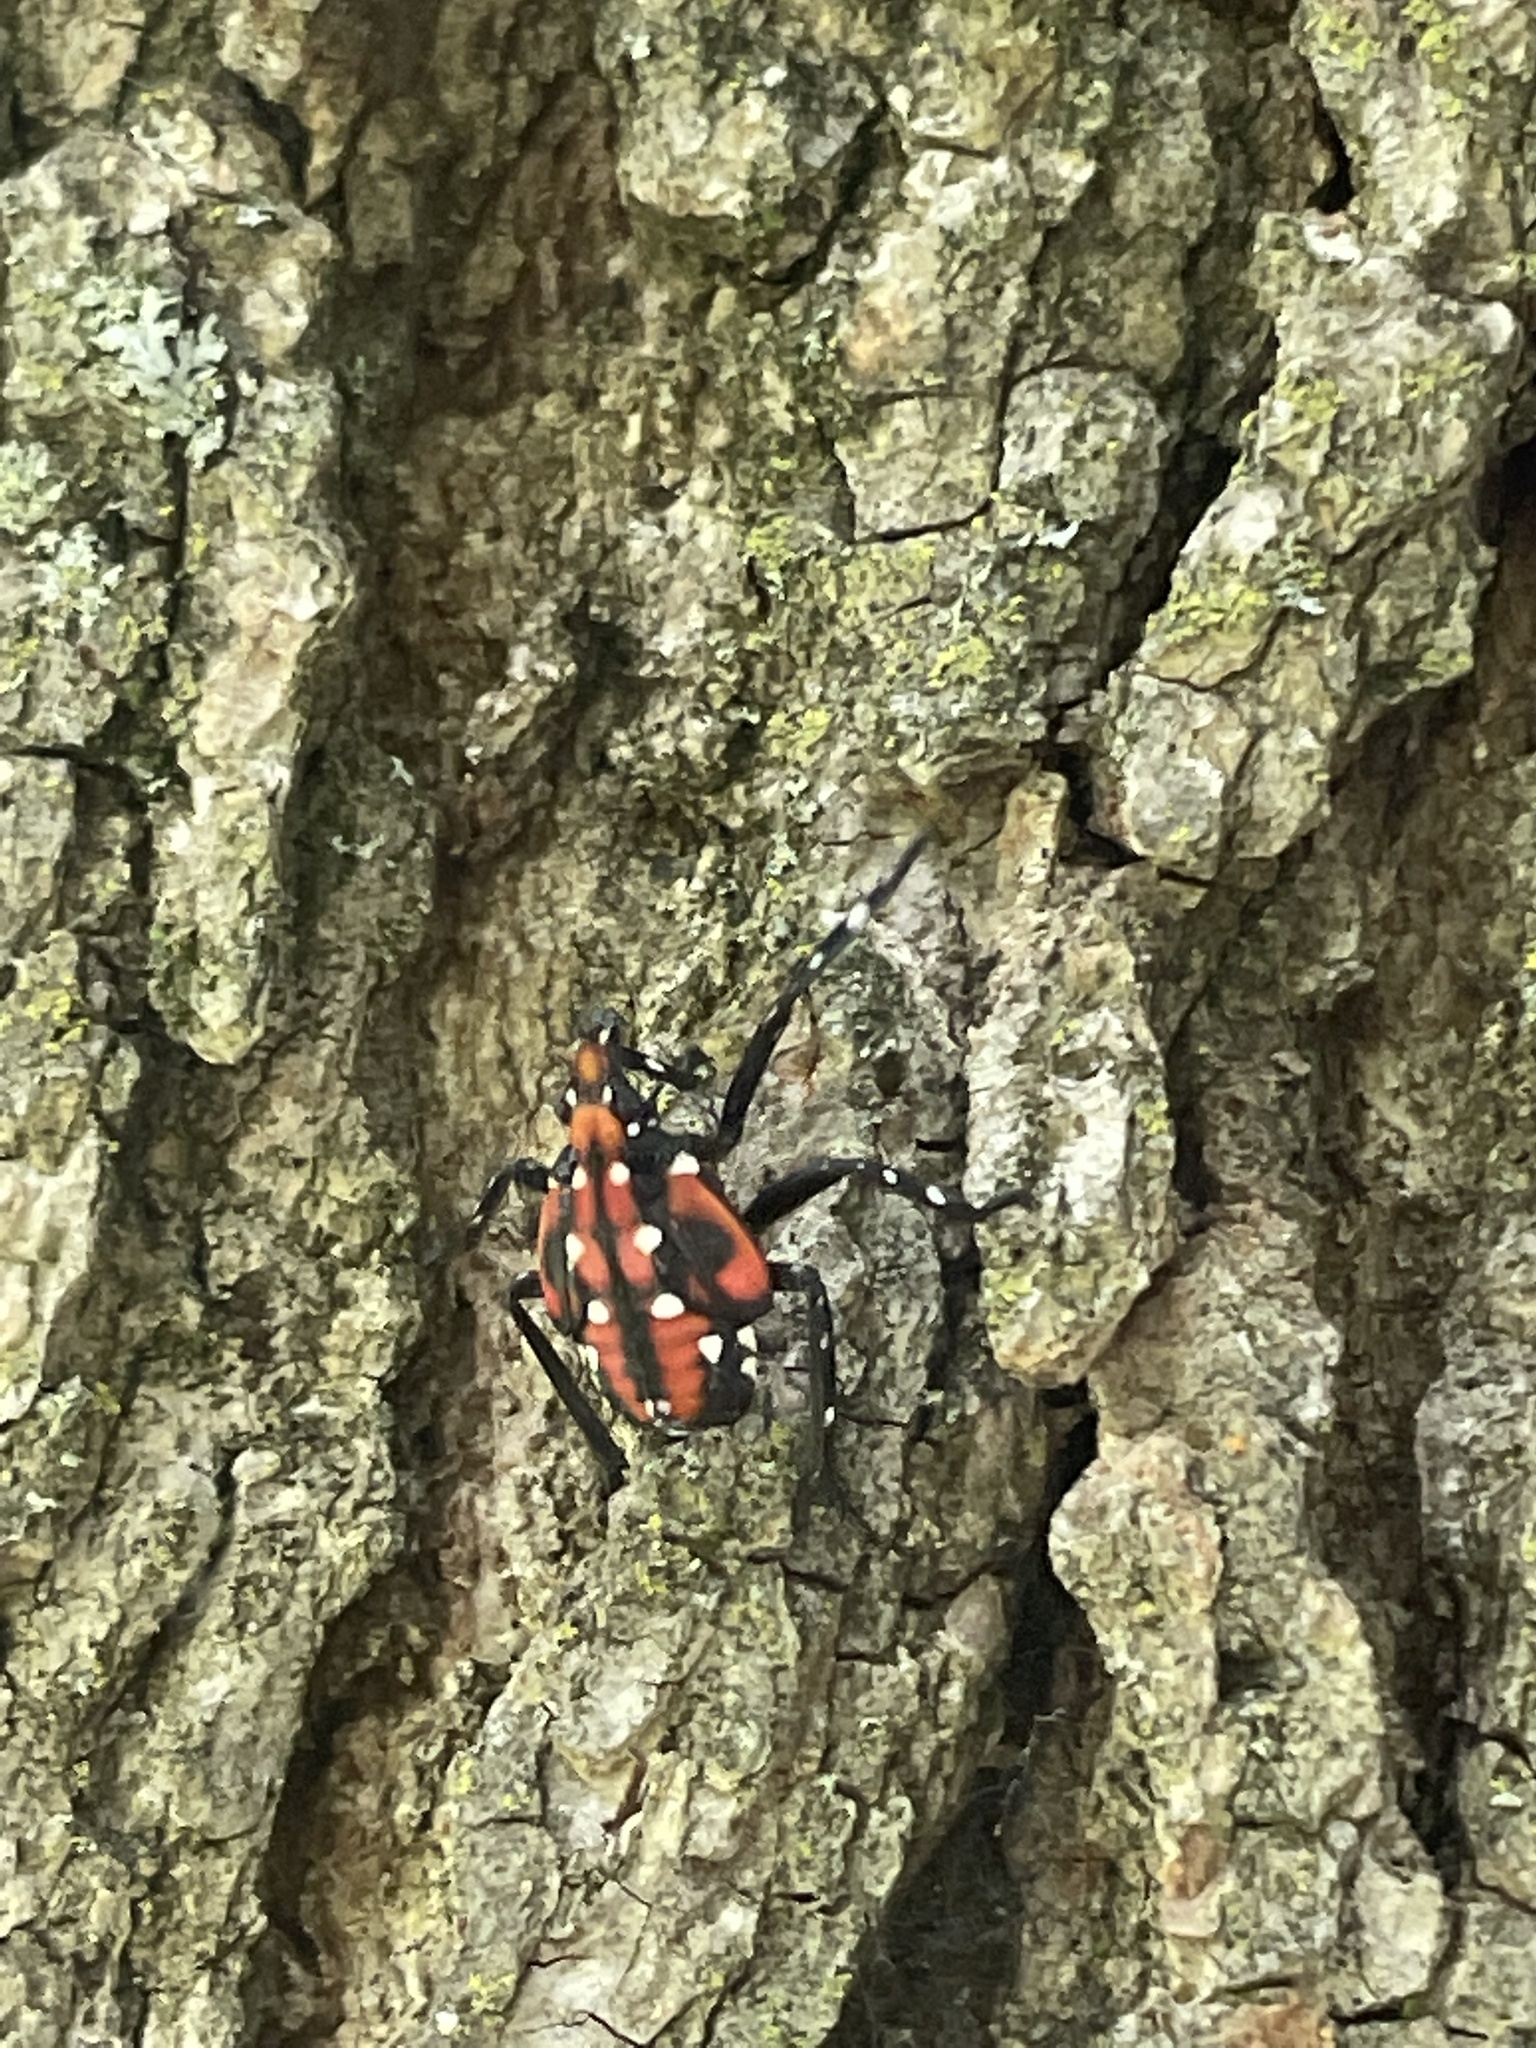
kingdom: Animalia
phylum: Arthropoda
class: Insecta
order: Hemiptera
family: Fulgoridae
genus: Lycorma
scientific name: Lycorma delicatula
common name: Spotted lanternfly
